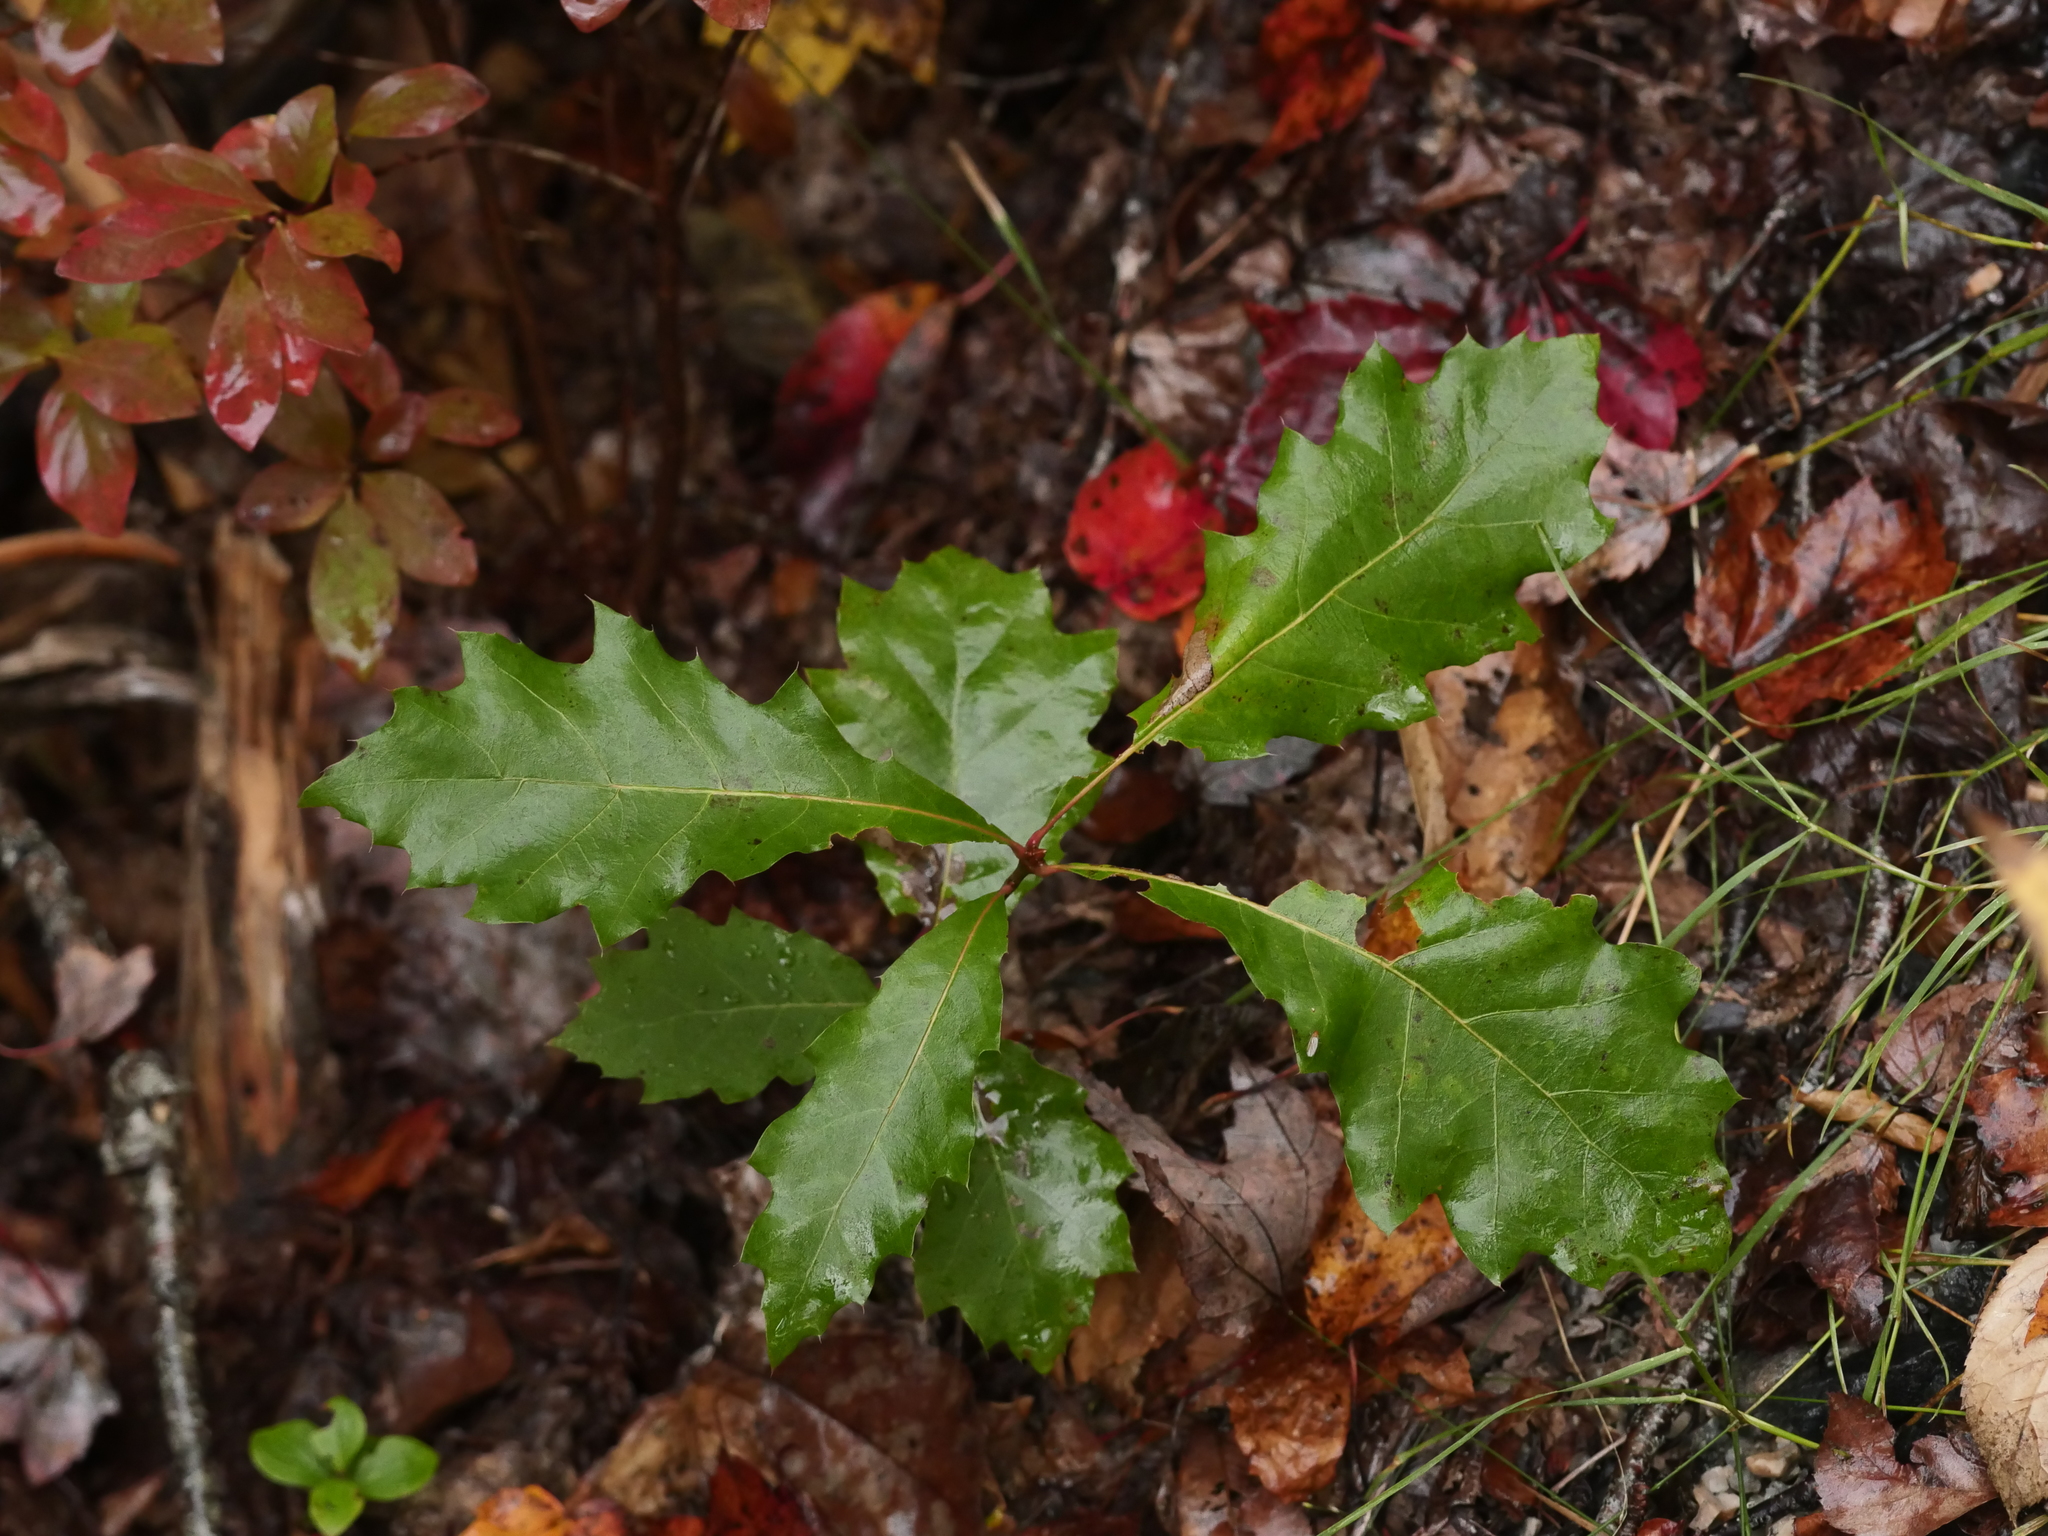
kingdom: Plantae
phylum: Tracheophyta
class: Magnoliopsida
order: Fagales
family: Fagaceae
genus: Quercus
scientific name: Quercus rubra
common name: Red oak
